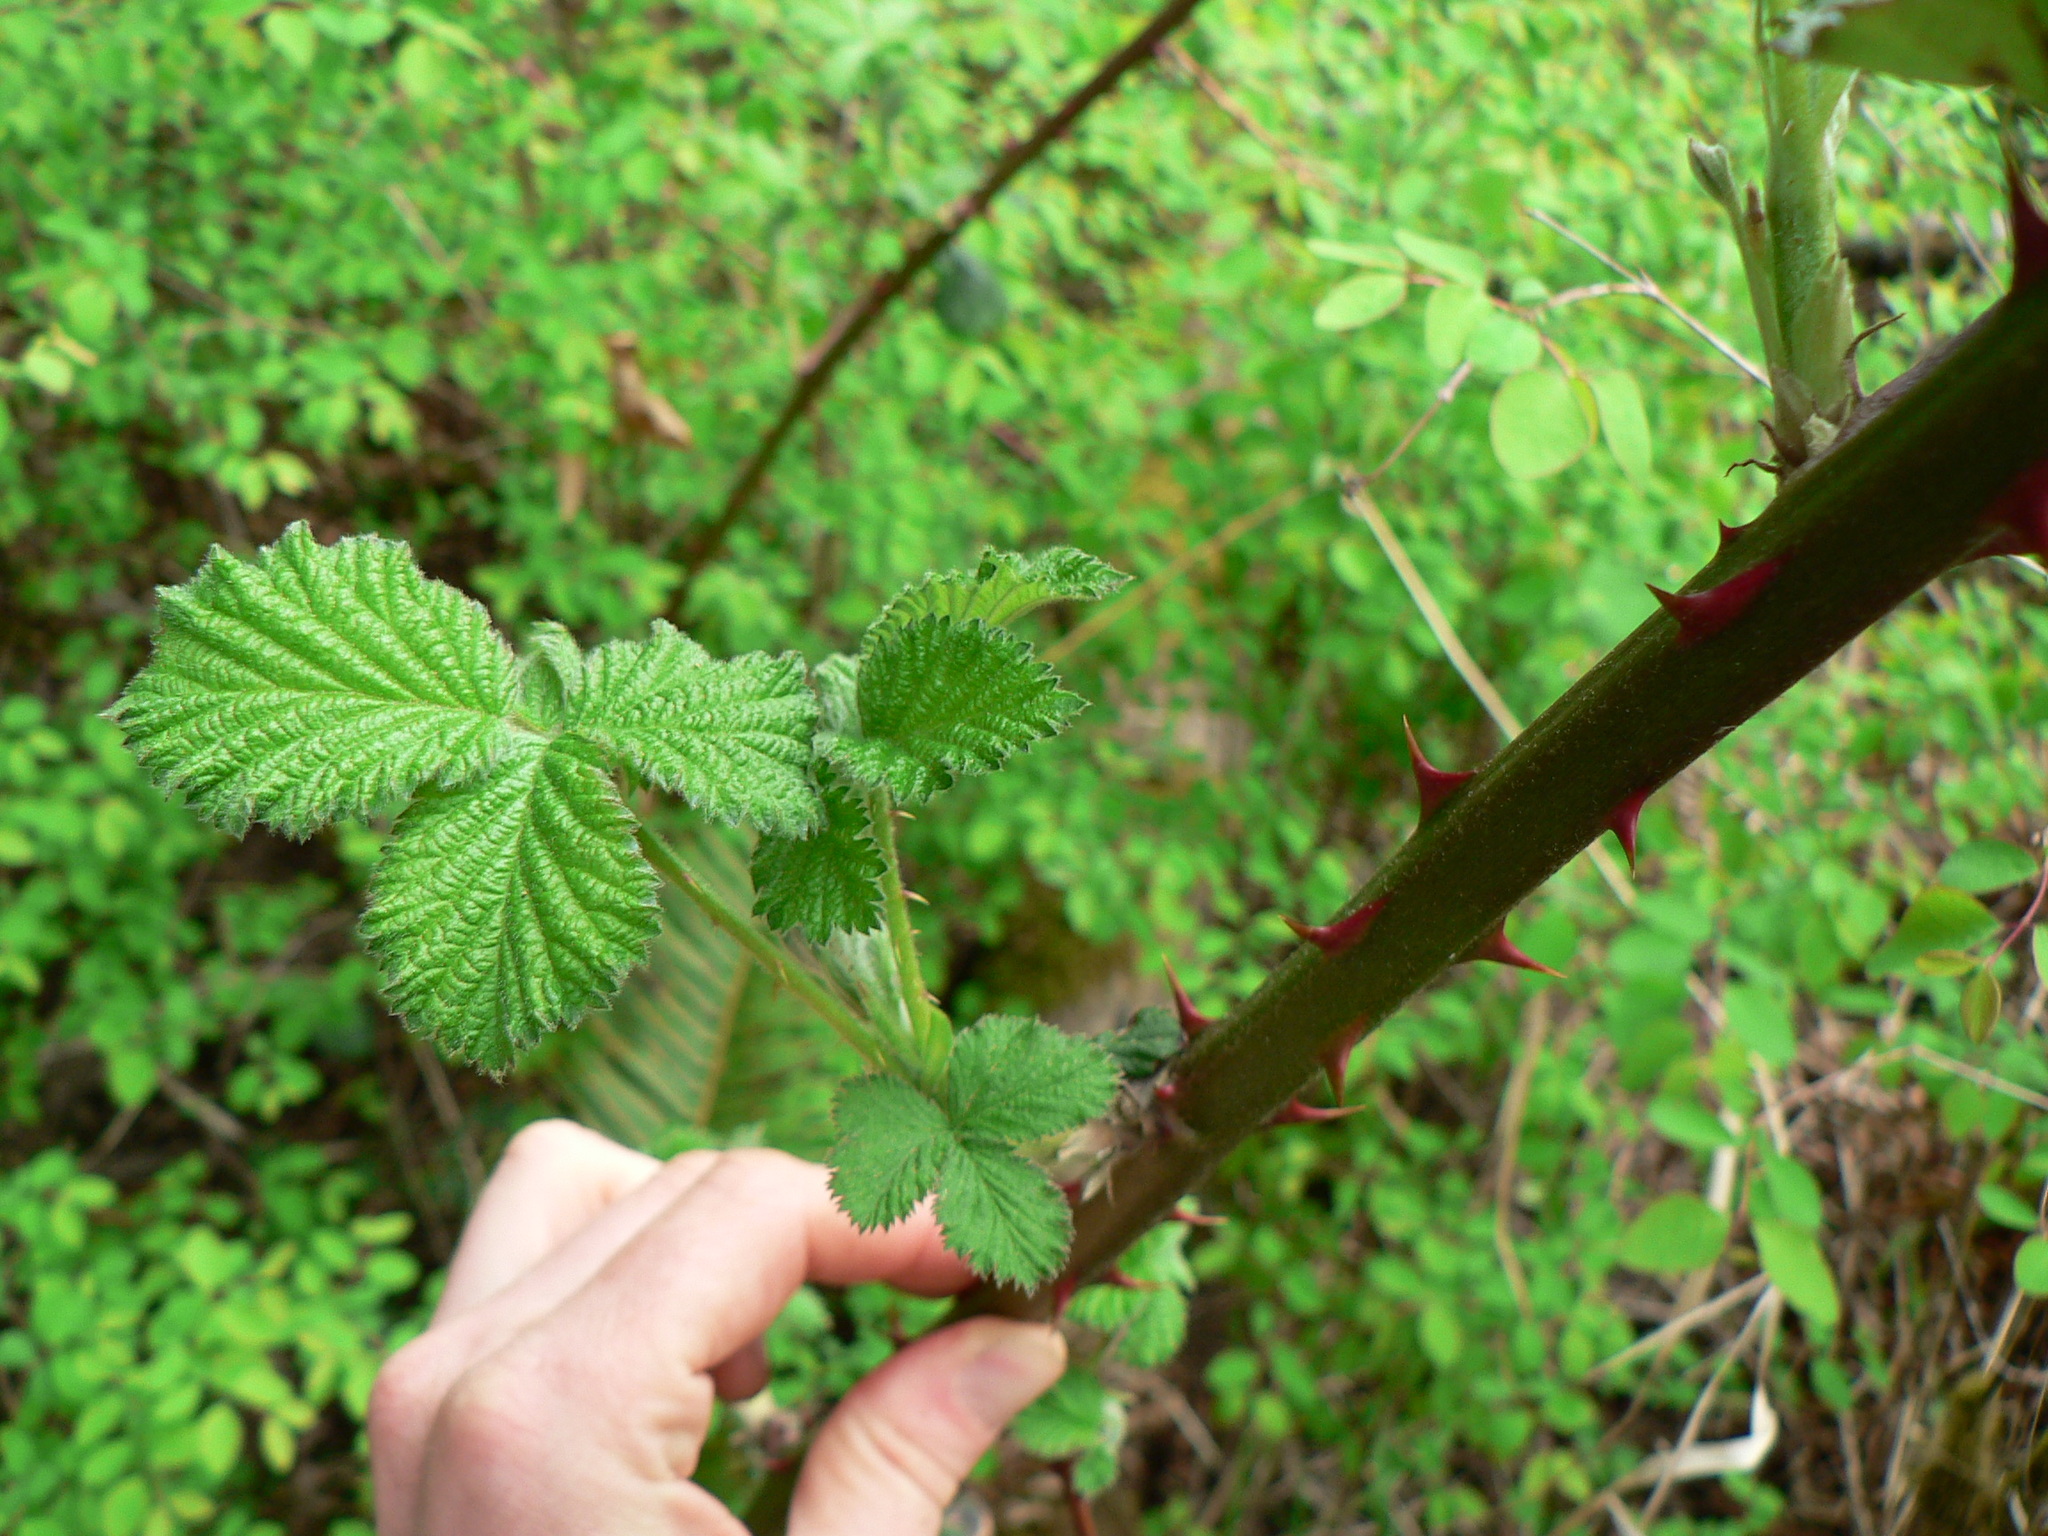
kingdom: Plantae
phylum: Tracheophyta
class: Magnoliopsida
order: Rosales
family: Rosaceae
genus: Rubus
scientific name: Rubus armeniacus
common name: Himalayan blackberry
